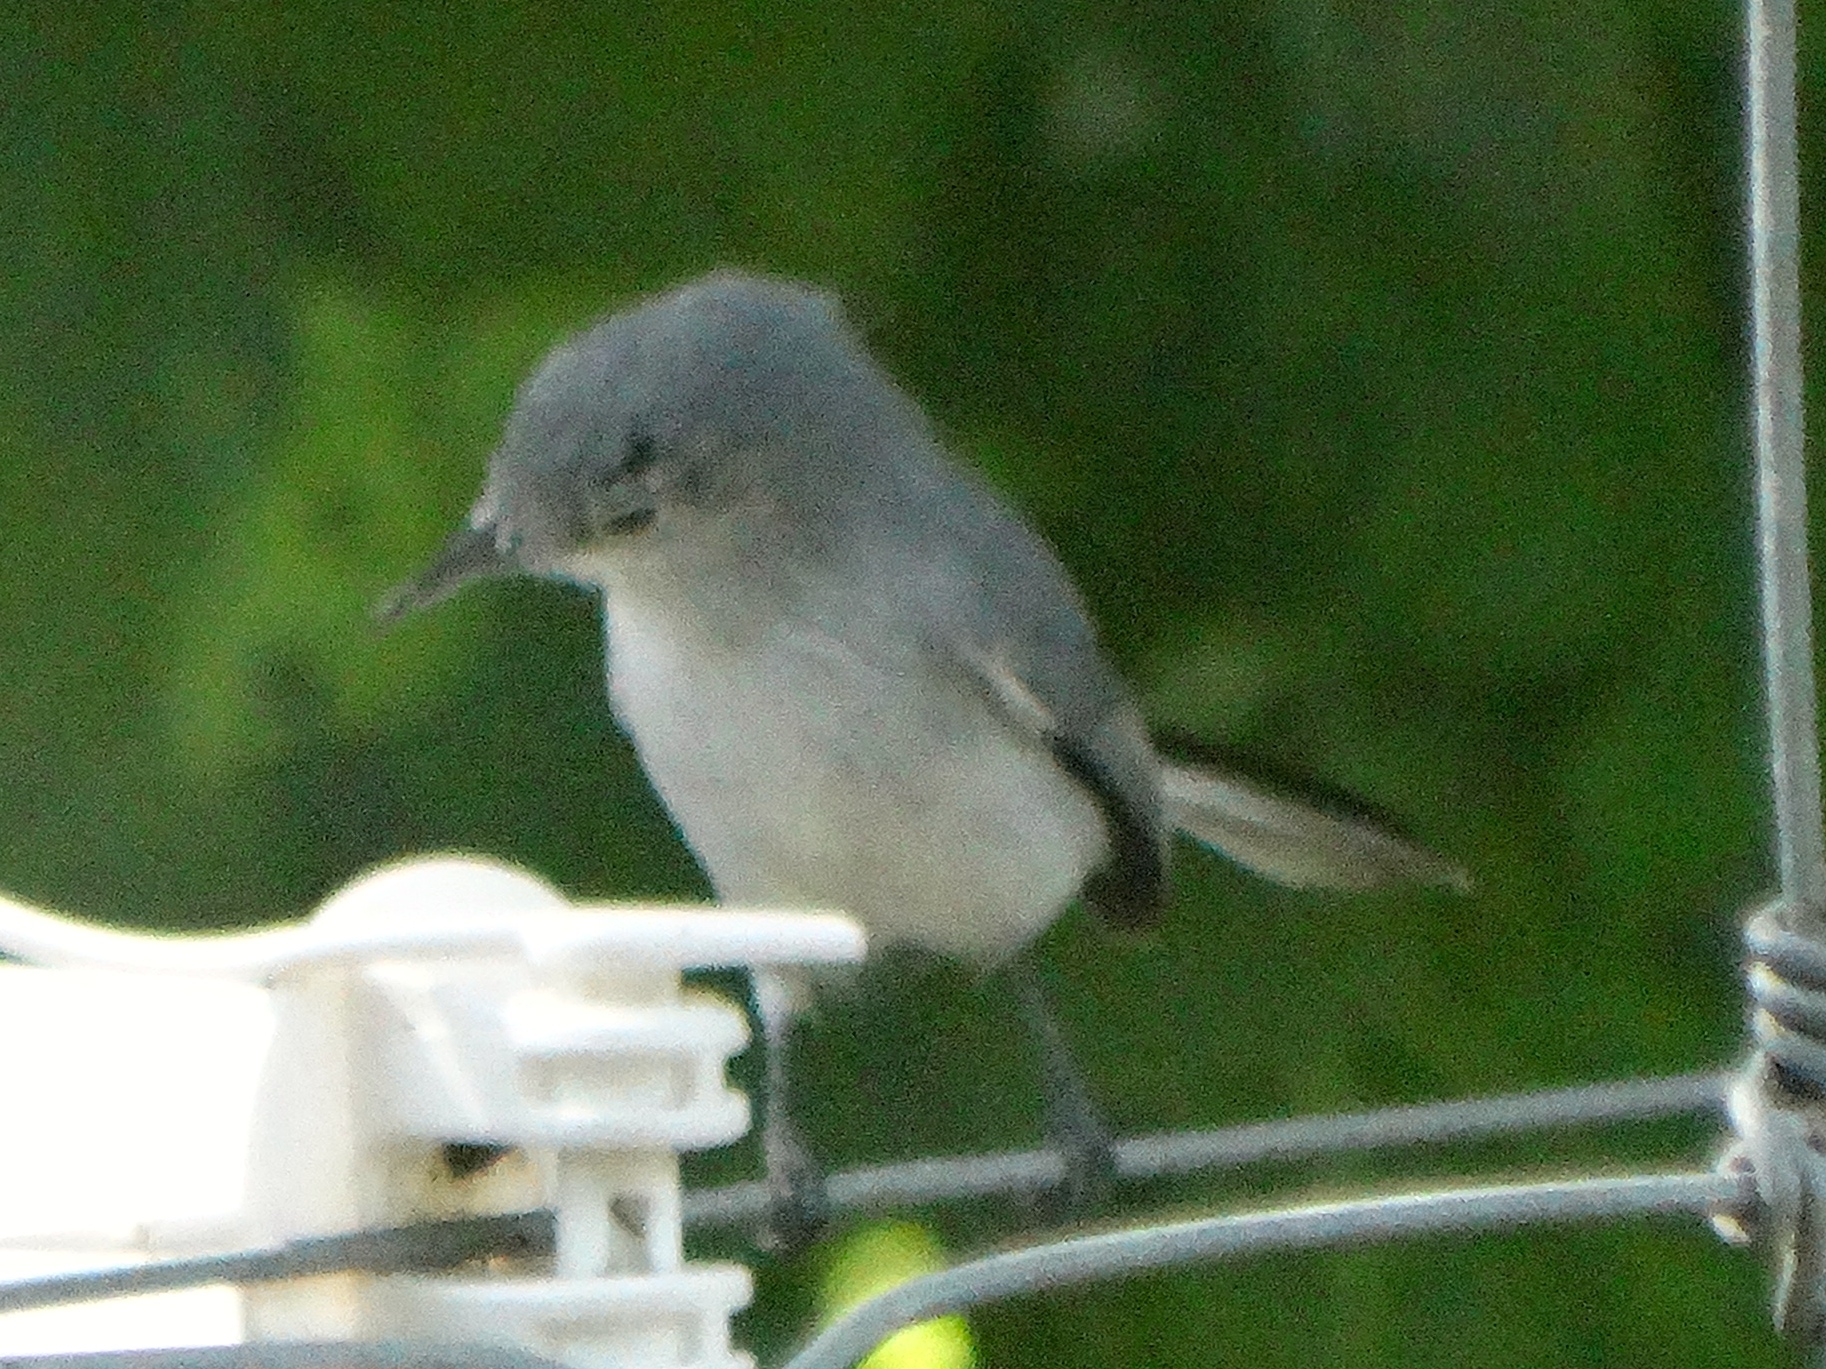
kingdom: Animalia
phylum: Chordata
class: Aves
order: Passeriformes
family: Polioptilidae
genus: Polioptila
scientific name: Polioptila caerulea
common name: Blue-gray gnatcatcher
